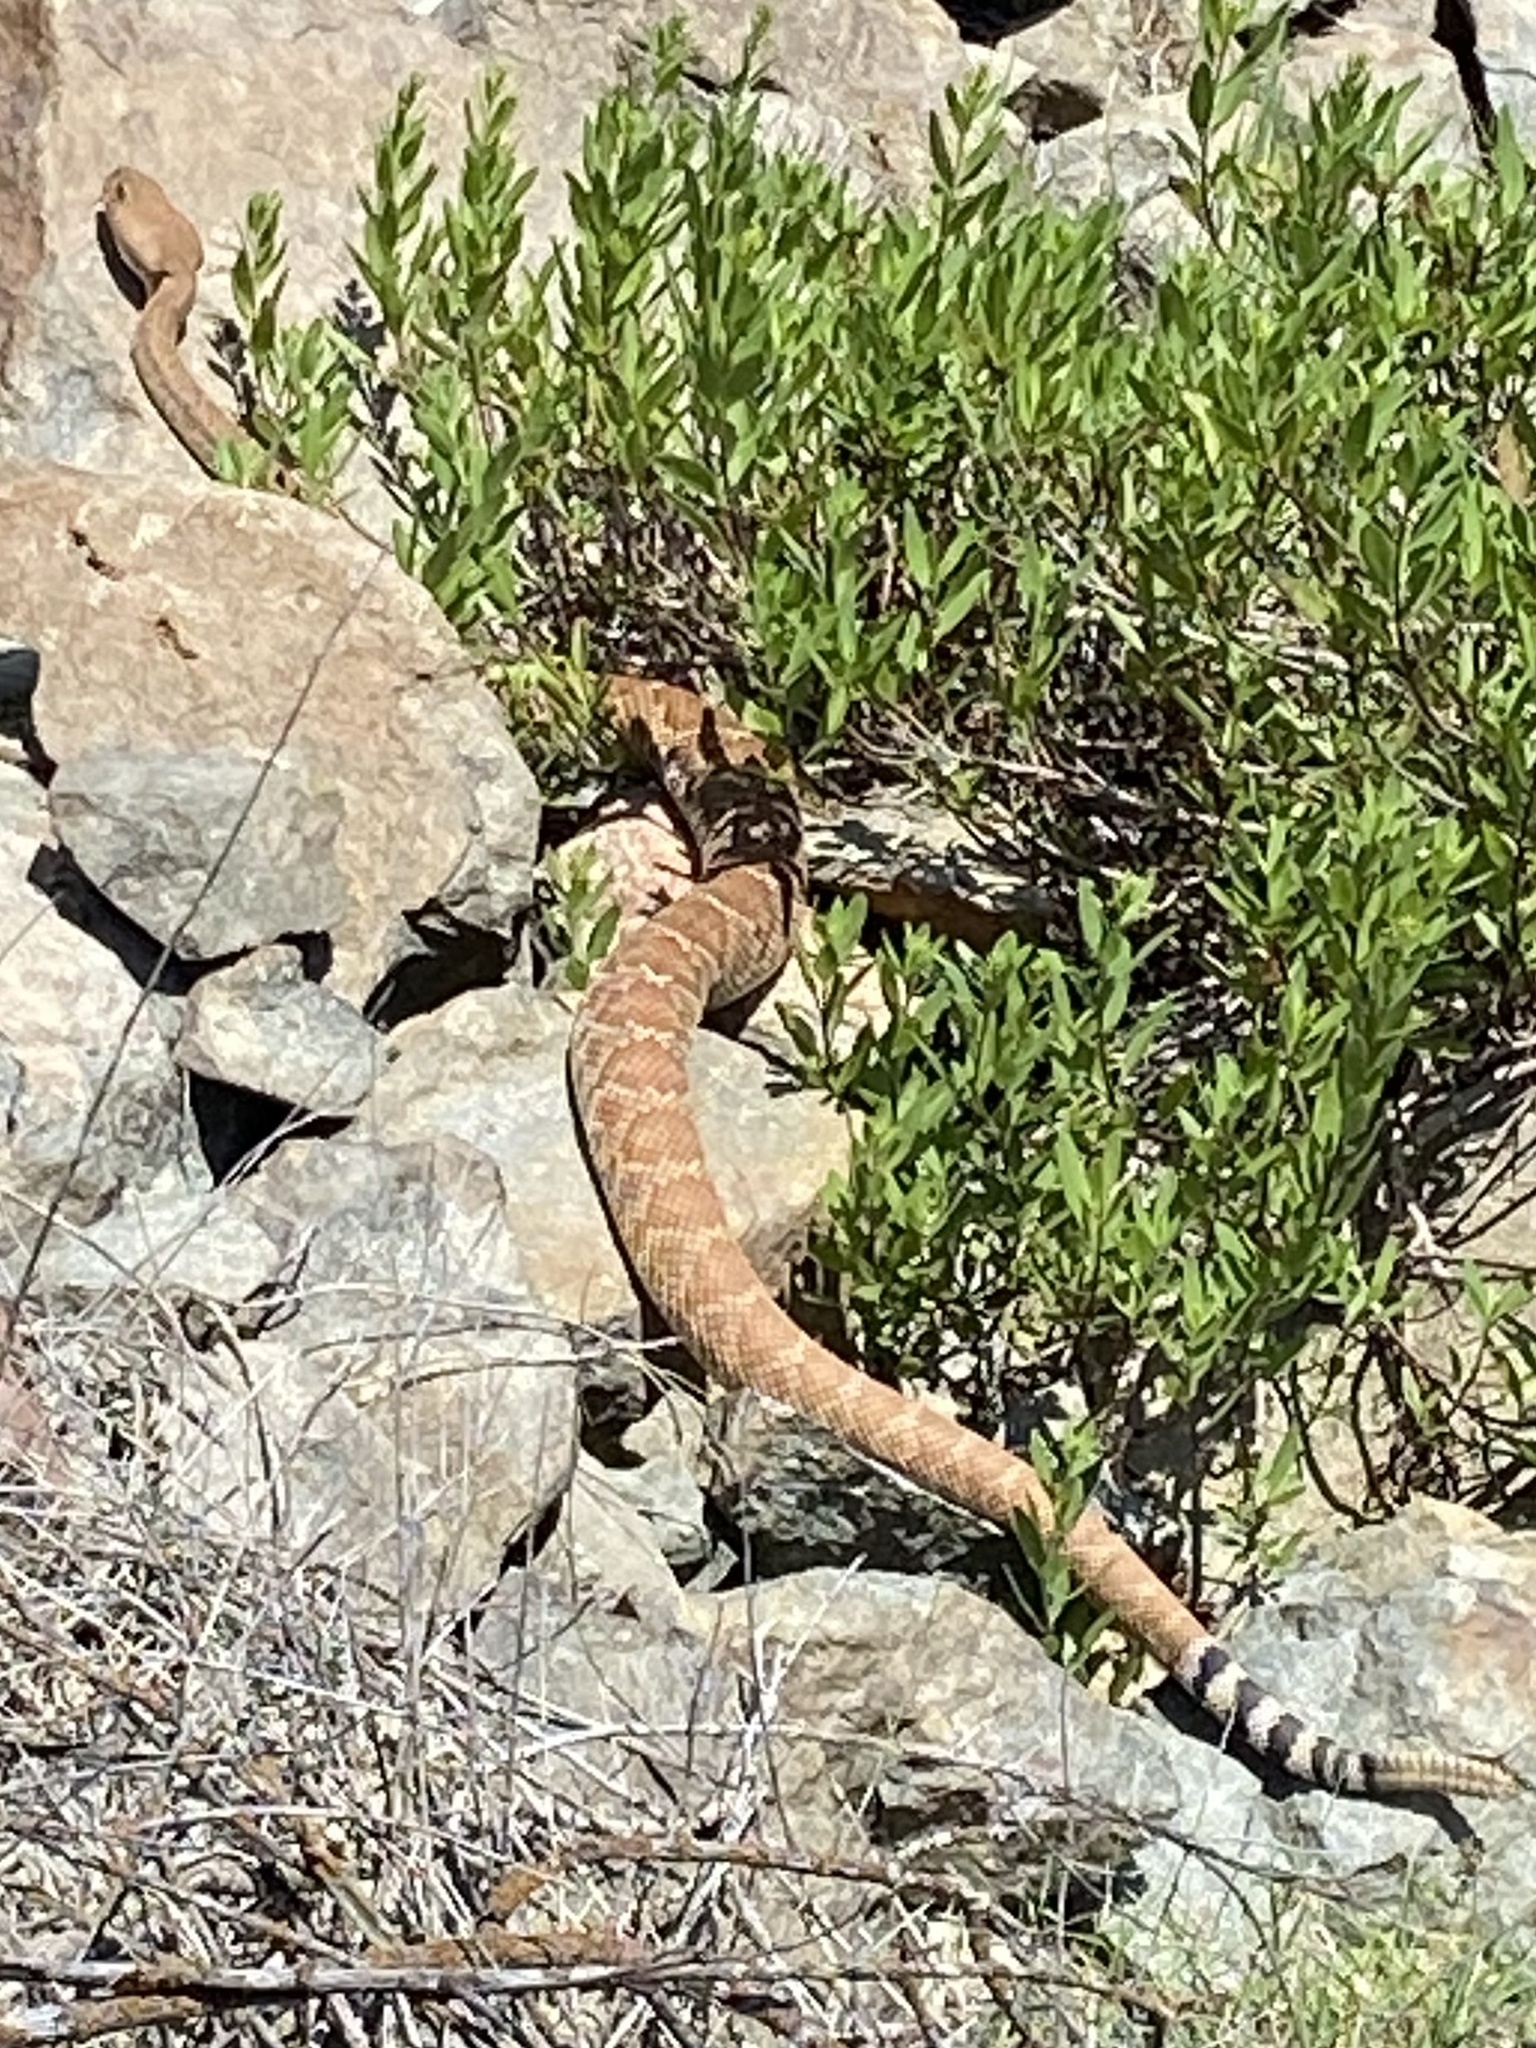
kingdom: Animalia
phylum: Chordata
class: Squamata
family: Viperidae
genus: Crotalus
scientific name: Crotalus ruber
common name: Red diamond rattlesnake
